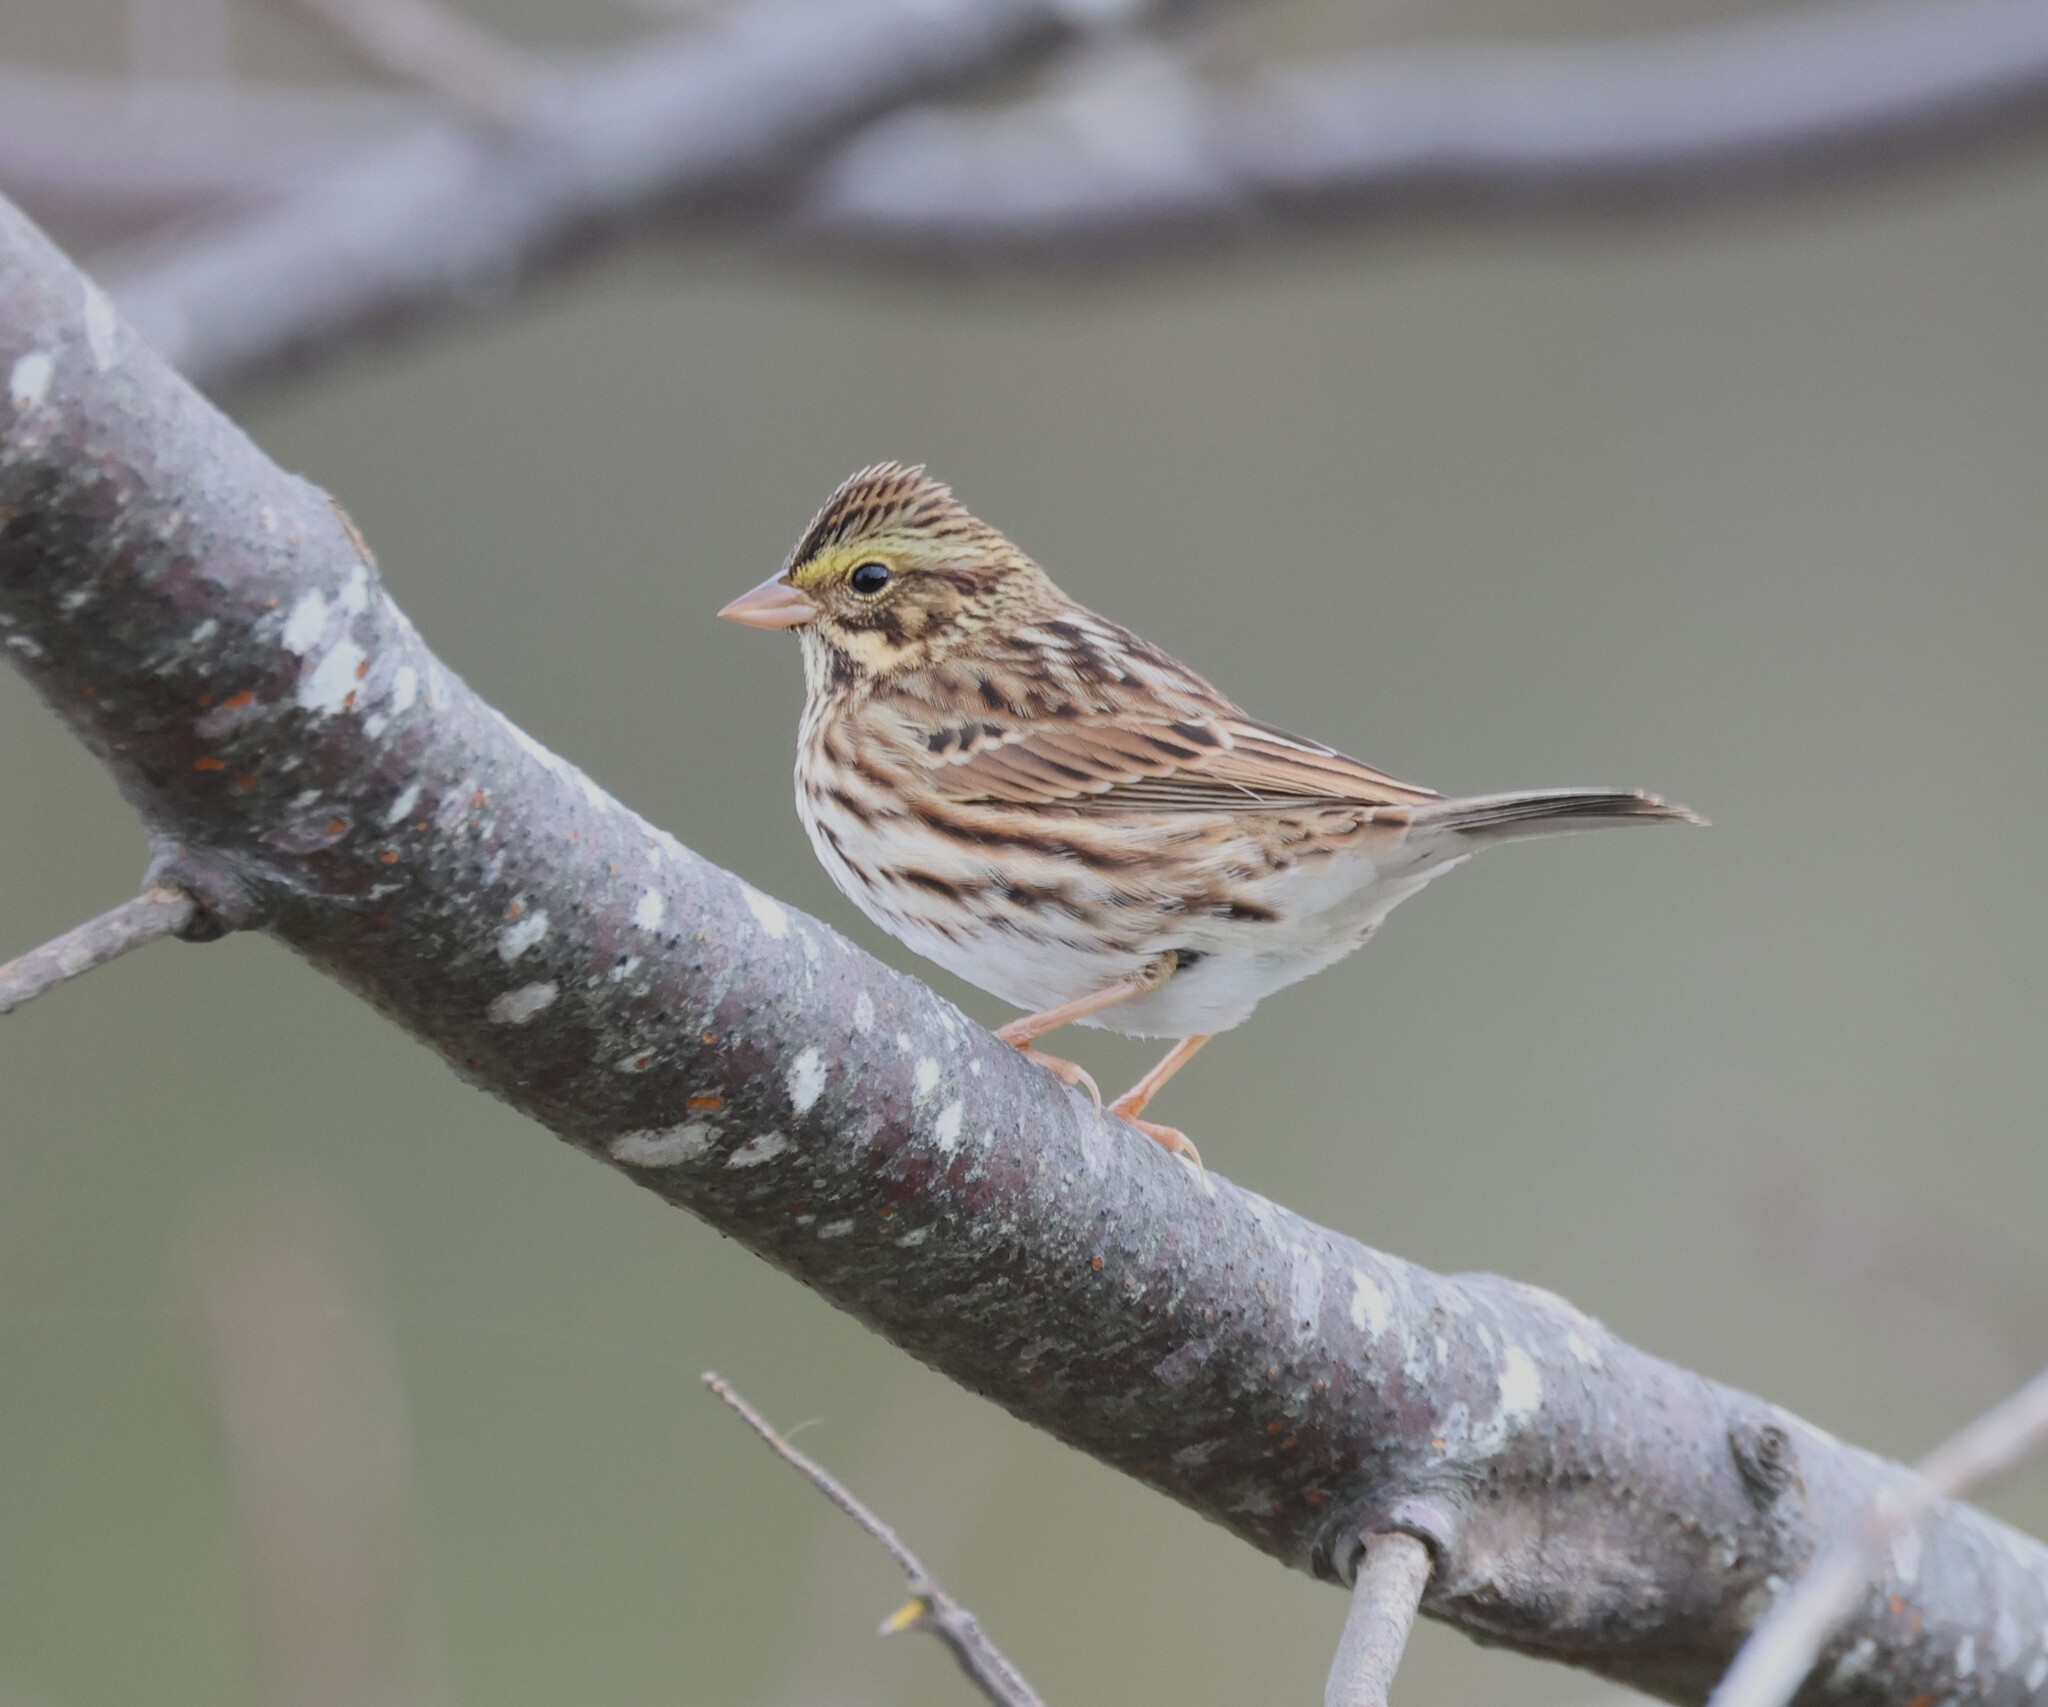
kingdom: Animalia
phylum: Chordata
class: Aves
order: Passeriformes
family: Passerellidae
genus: Passerculus
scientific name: Passerculus sandwichensis
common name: Savannah sparrow
